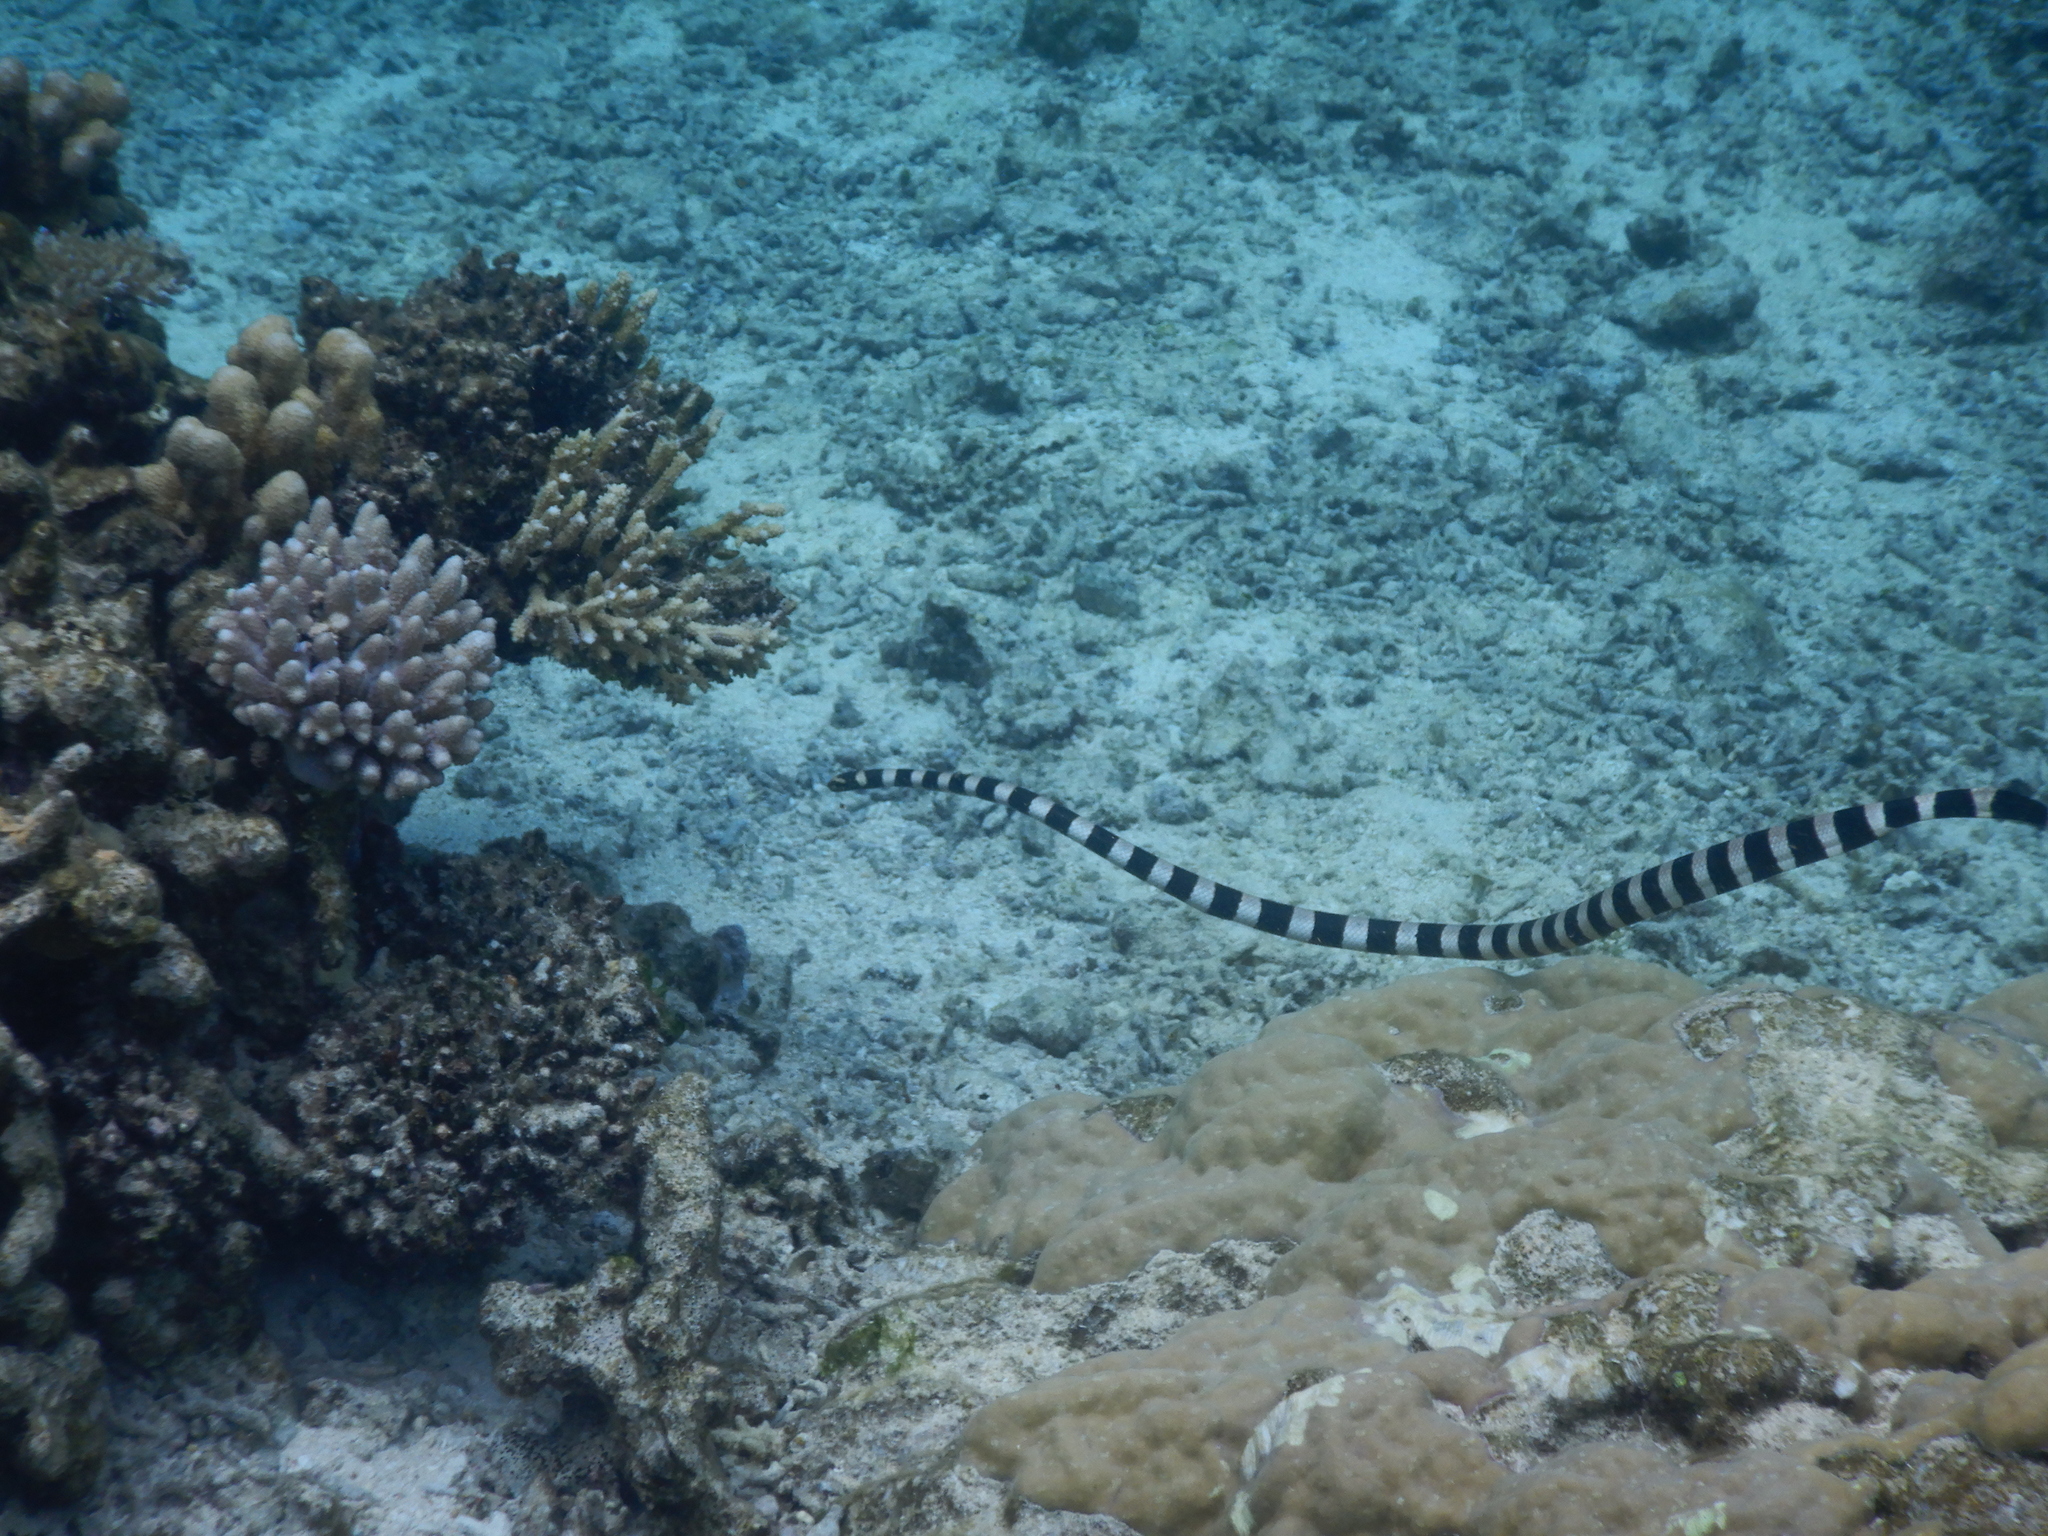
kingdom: Animalia
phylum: Chordata
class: Squamata
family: Elapidae
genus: Laticauda
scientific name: Laticauda saintgironsi
